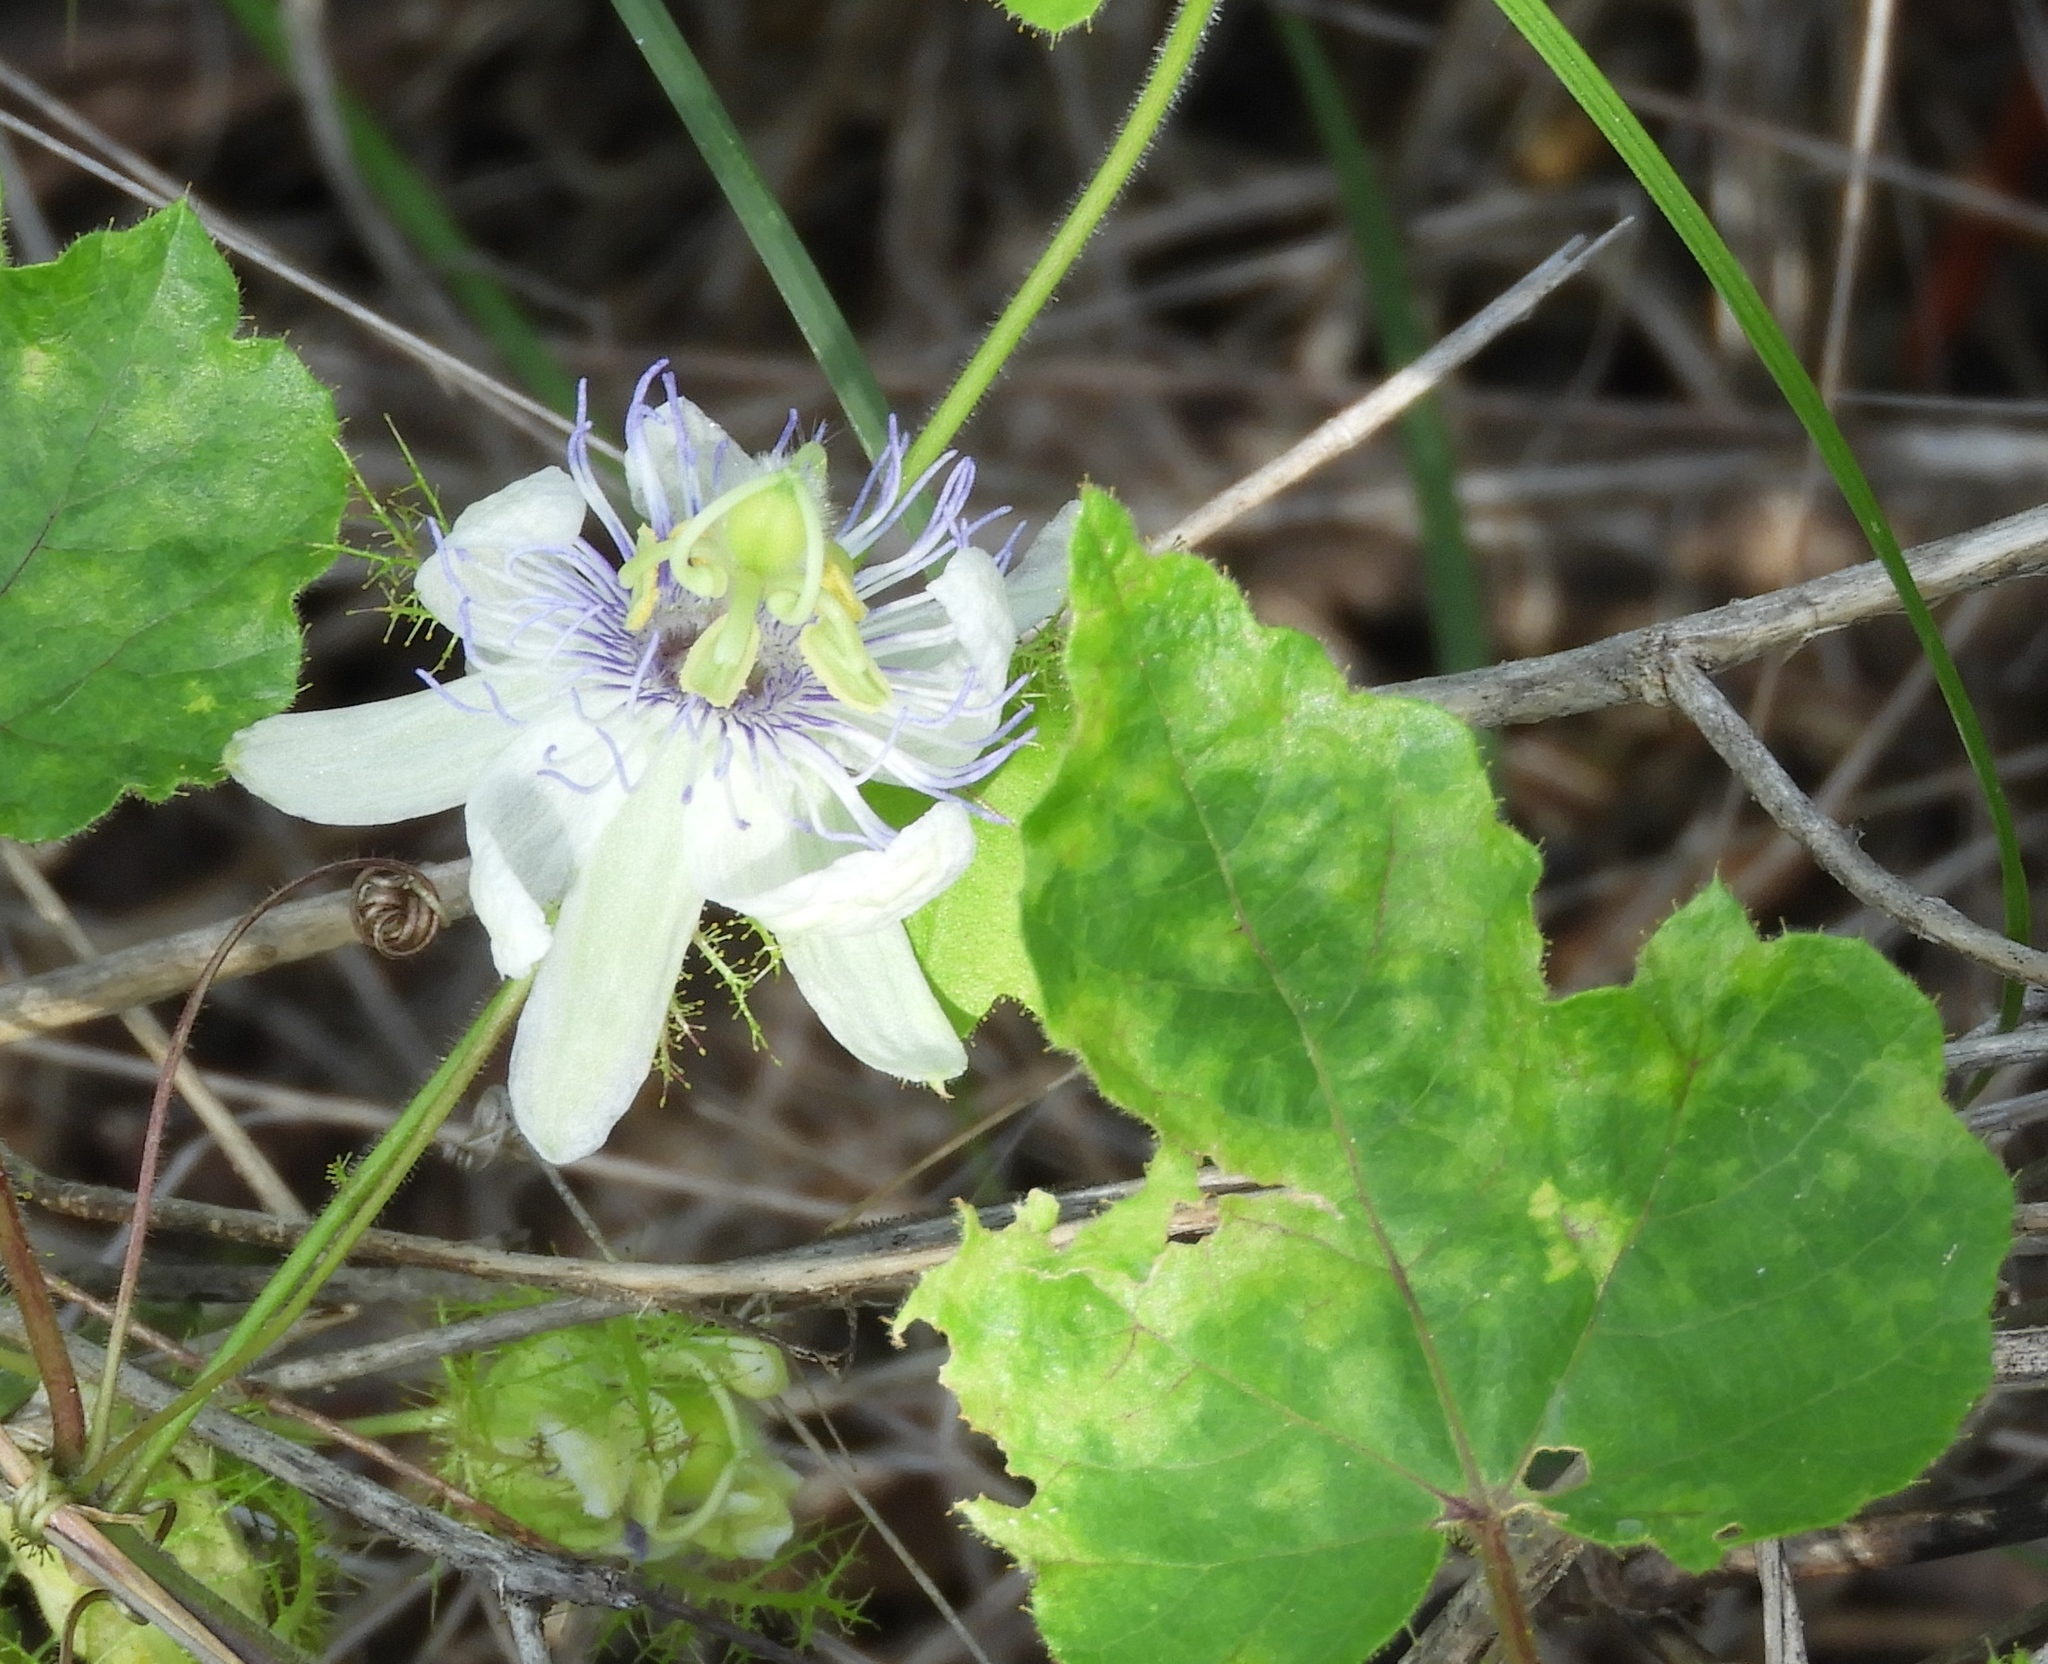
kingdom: Plantae
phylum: Tracheophyta
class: Magnoliopsida
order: Malpighiales
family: Passifloraceae
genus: Passiflora
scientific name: Passiflora foetida
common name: Fetid passionflower
